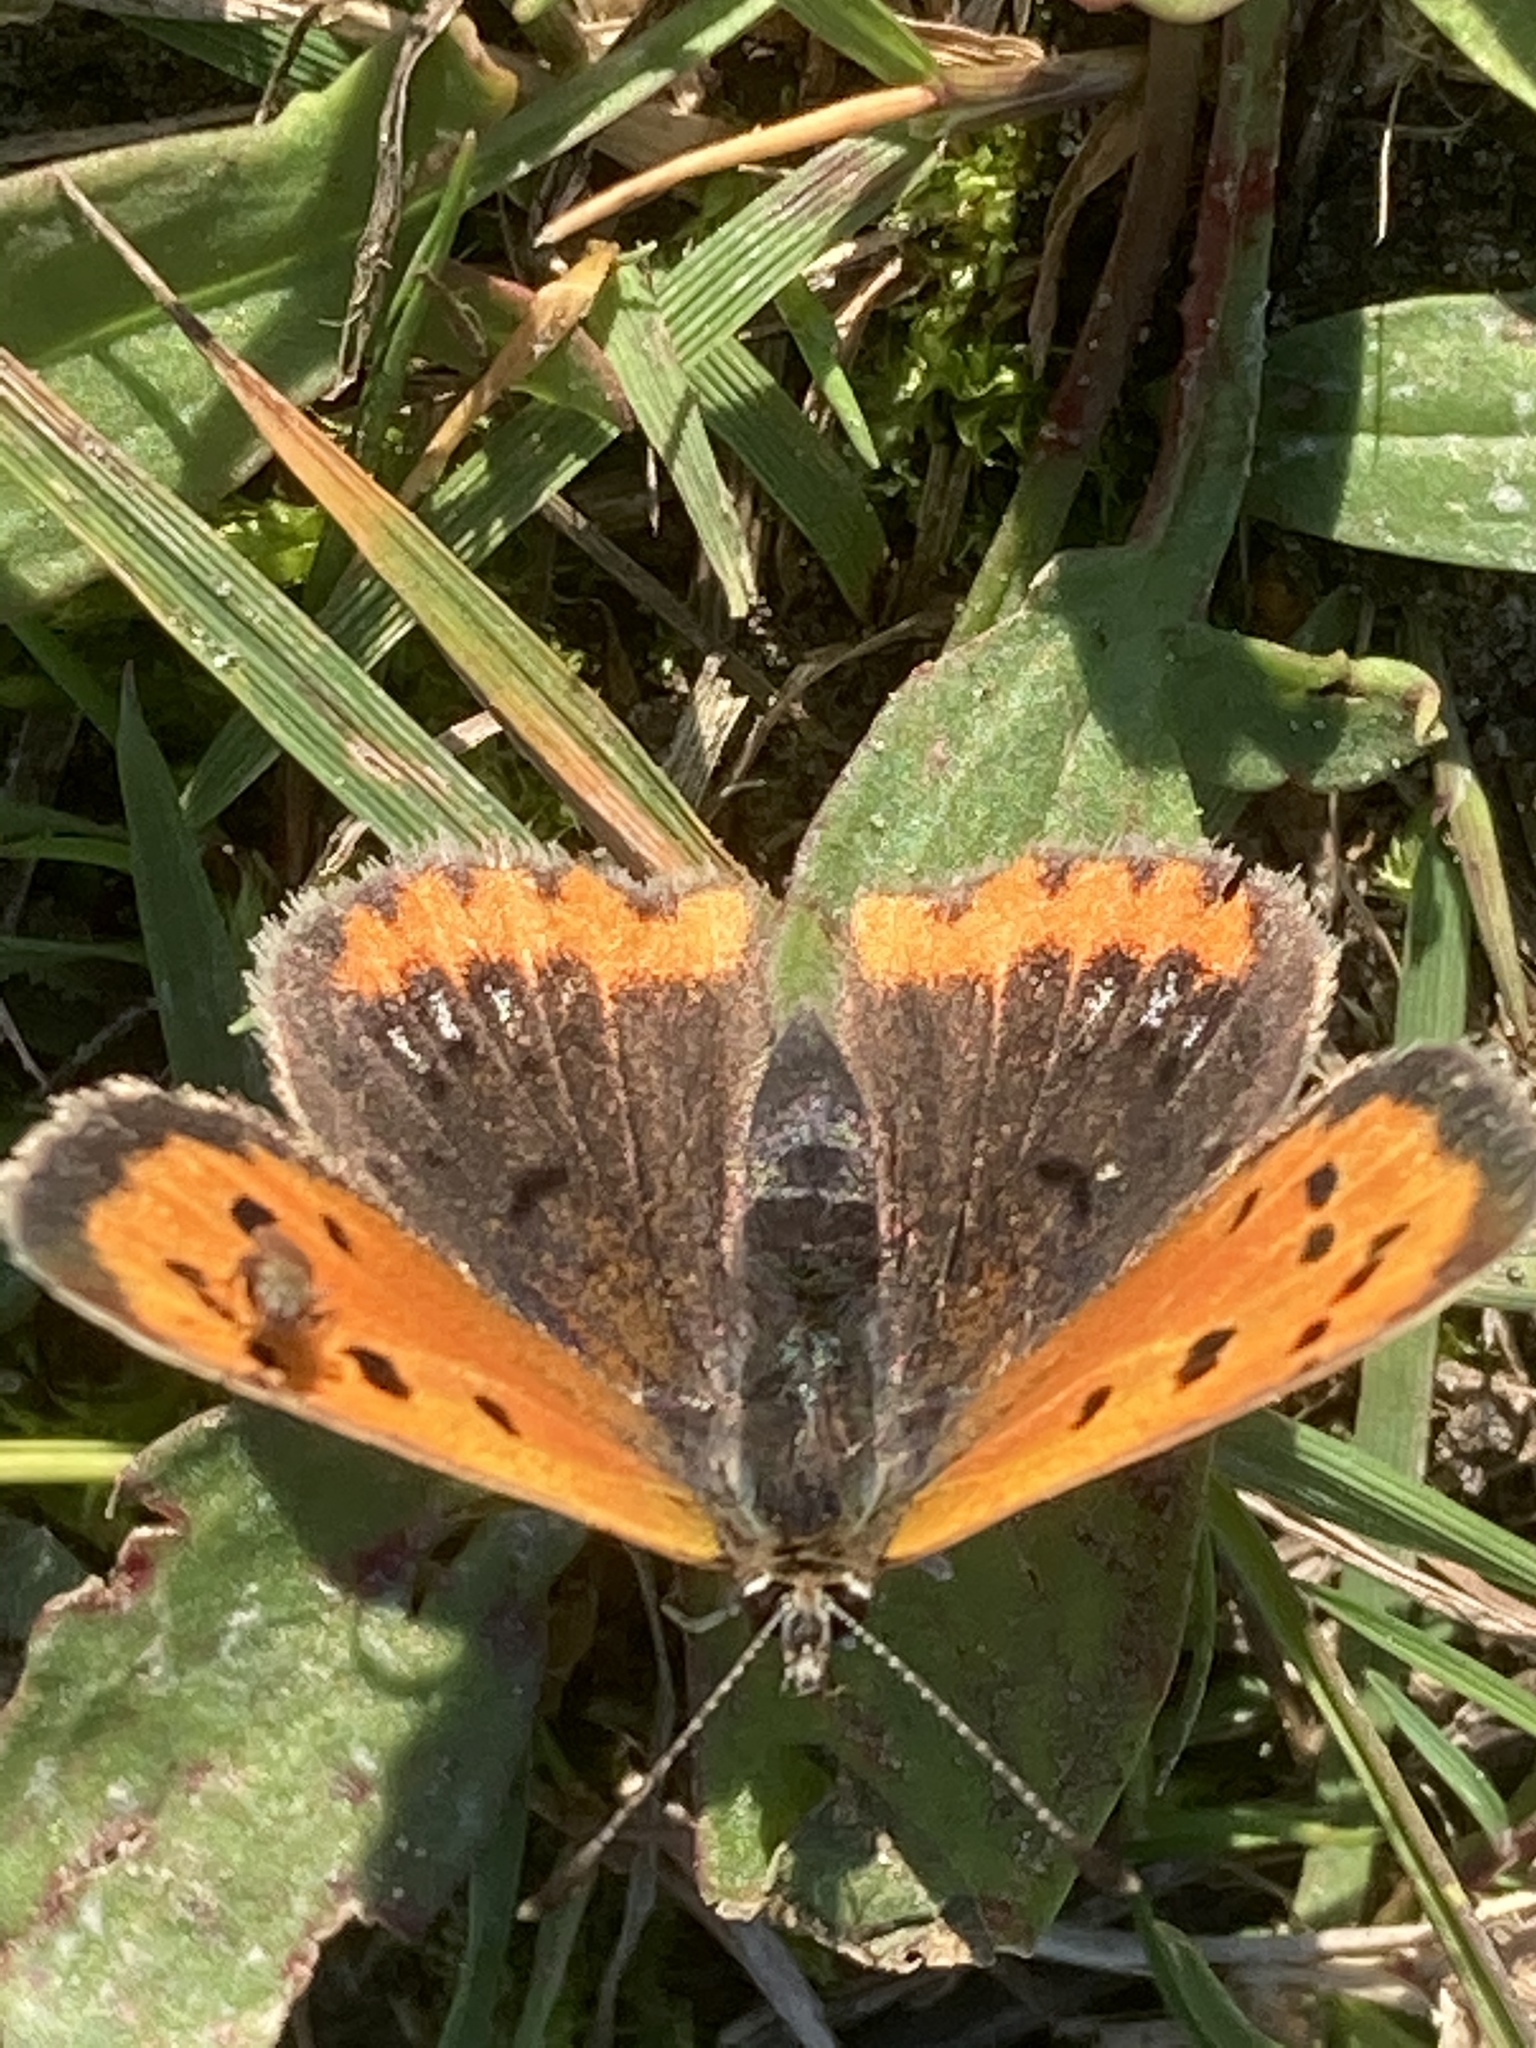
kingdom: Animalia
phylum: Arthropoda
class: Insecta
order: Lepidoptera
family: Lycaenidae
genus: Lycaena
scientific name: Lycaena phlaeas
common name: Small copper
